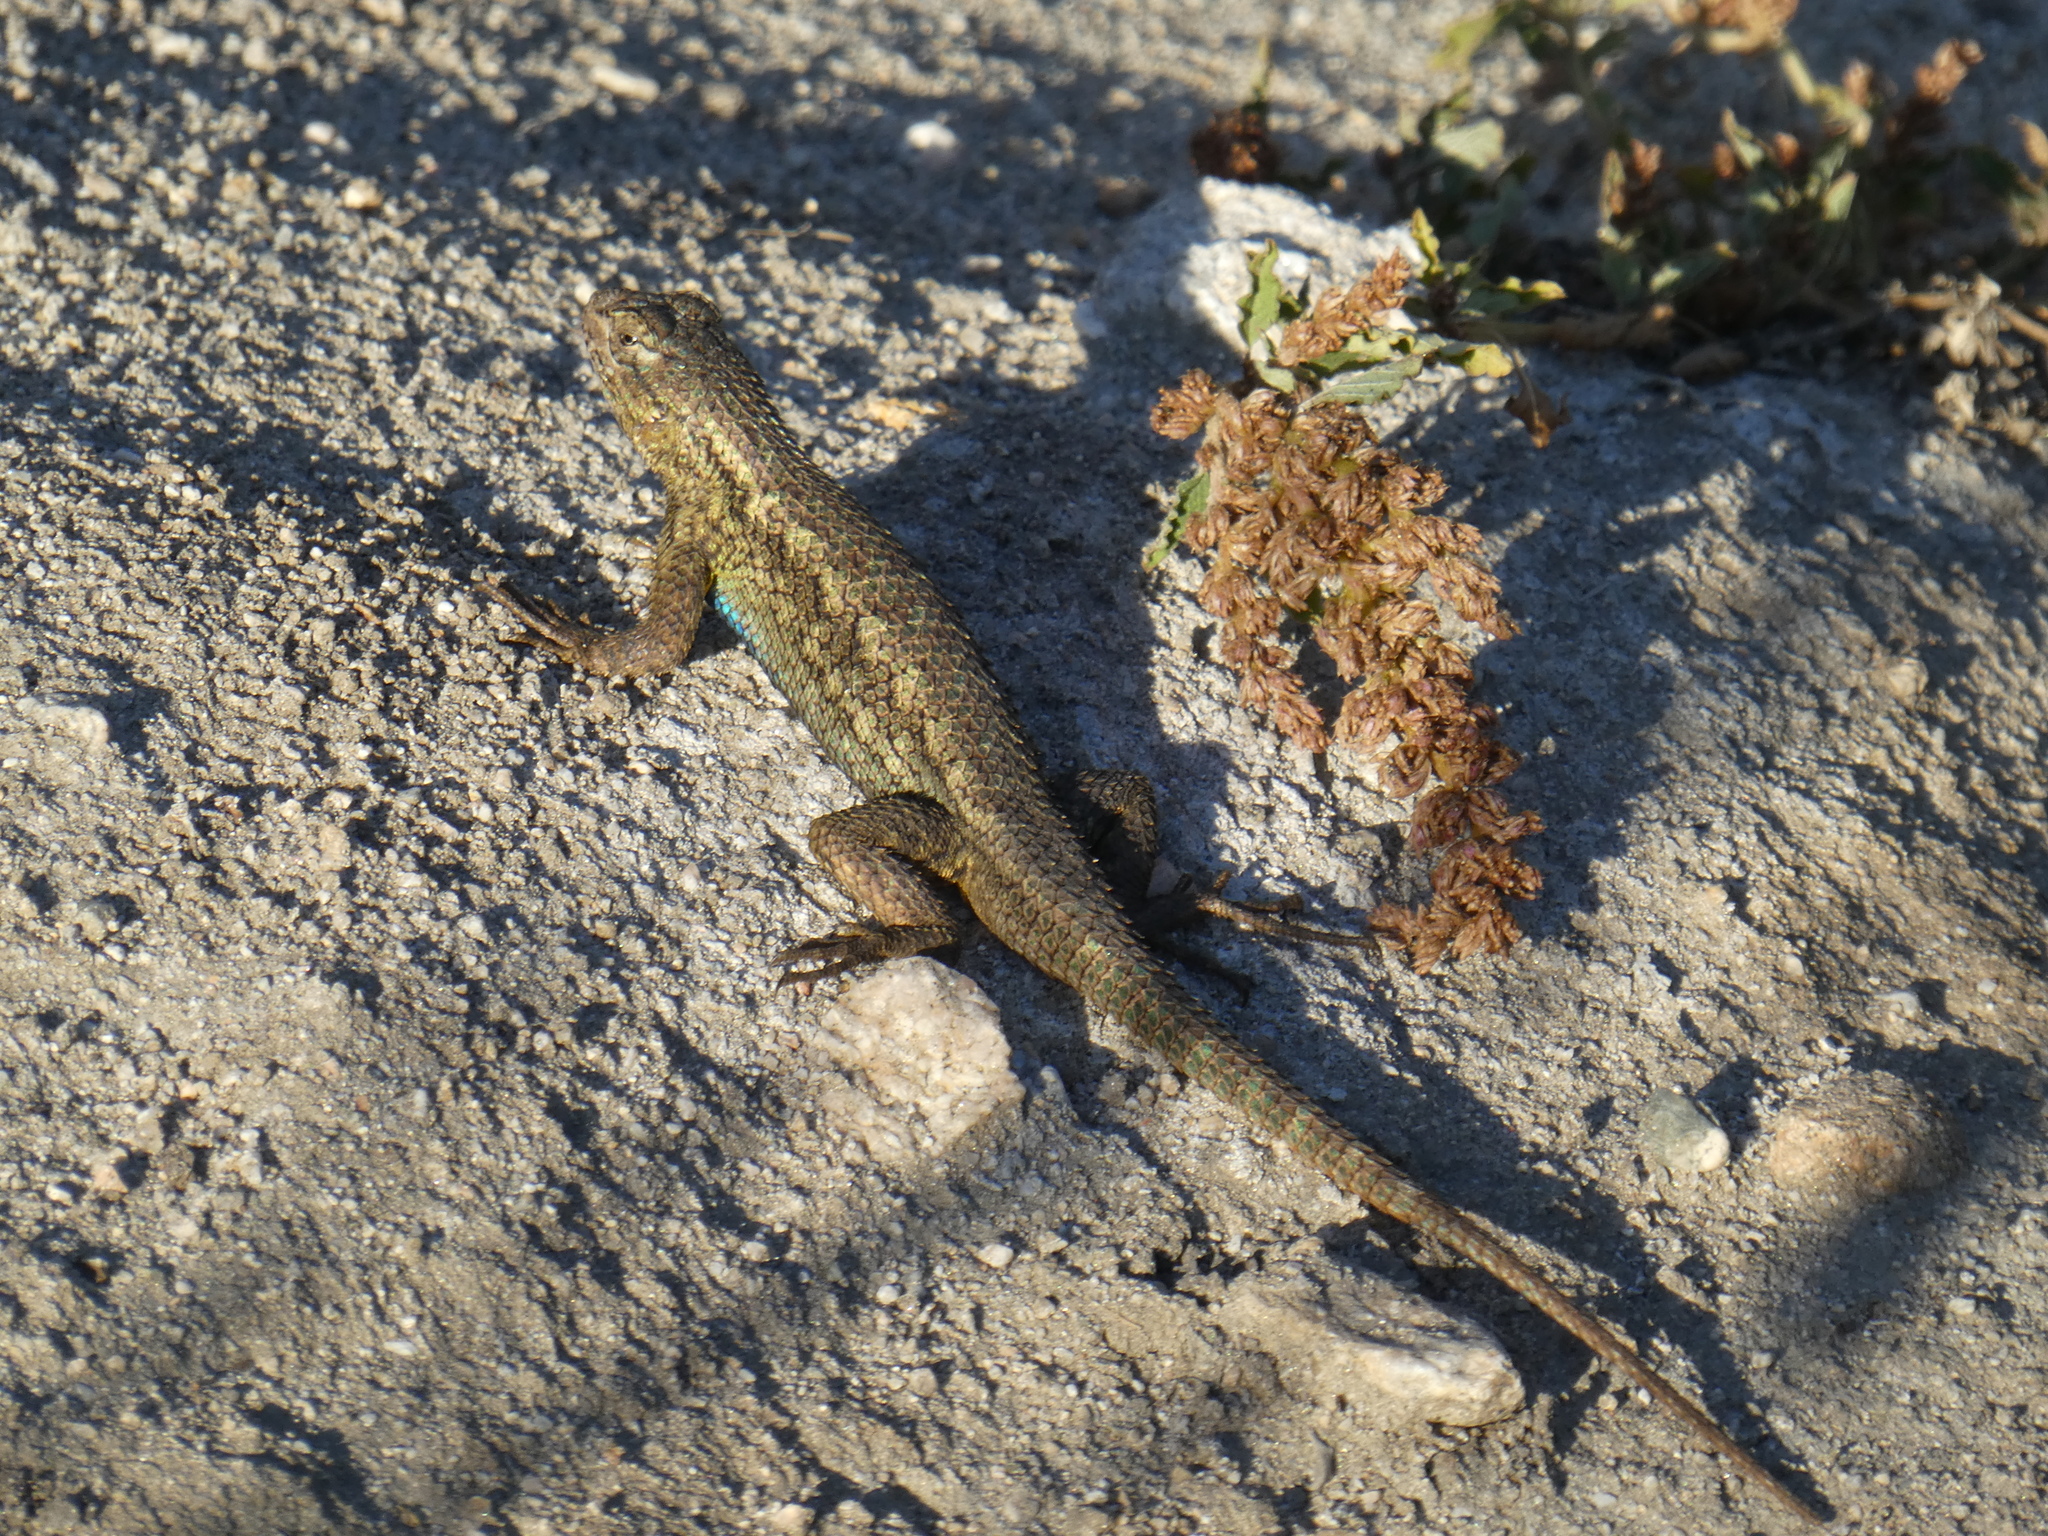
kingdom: Animalia
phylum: Chordata
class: Squamata
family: Phrynosomatidae
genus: Sceloporus
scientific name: Sceloporus occidentalis
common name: Western fence lizard
